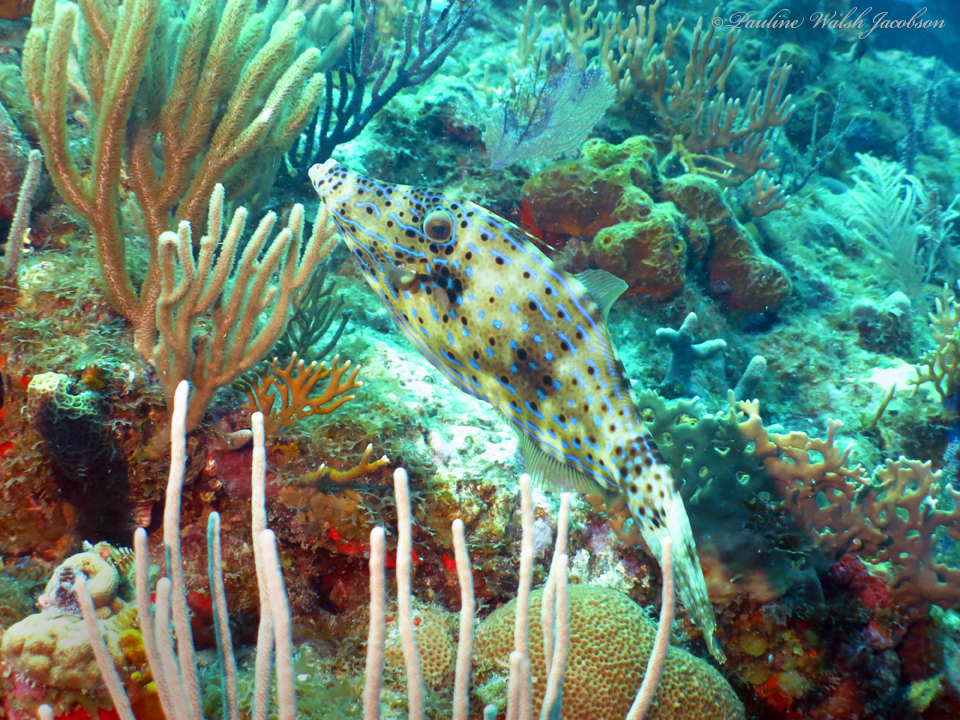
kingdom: Animalia
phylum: Chordata
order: Tetraodontiformes
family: Monacanthidae
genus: Aluterus
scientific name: Aluterus scriptus
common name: Scribbled leatherjacket filefish
